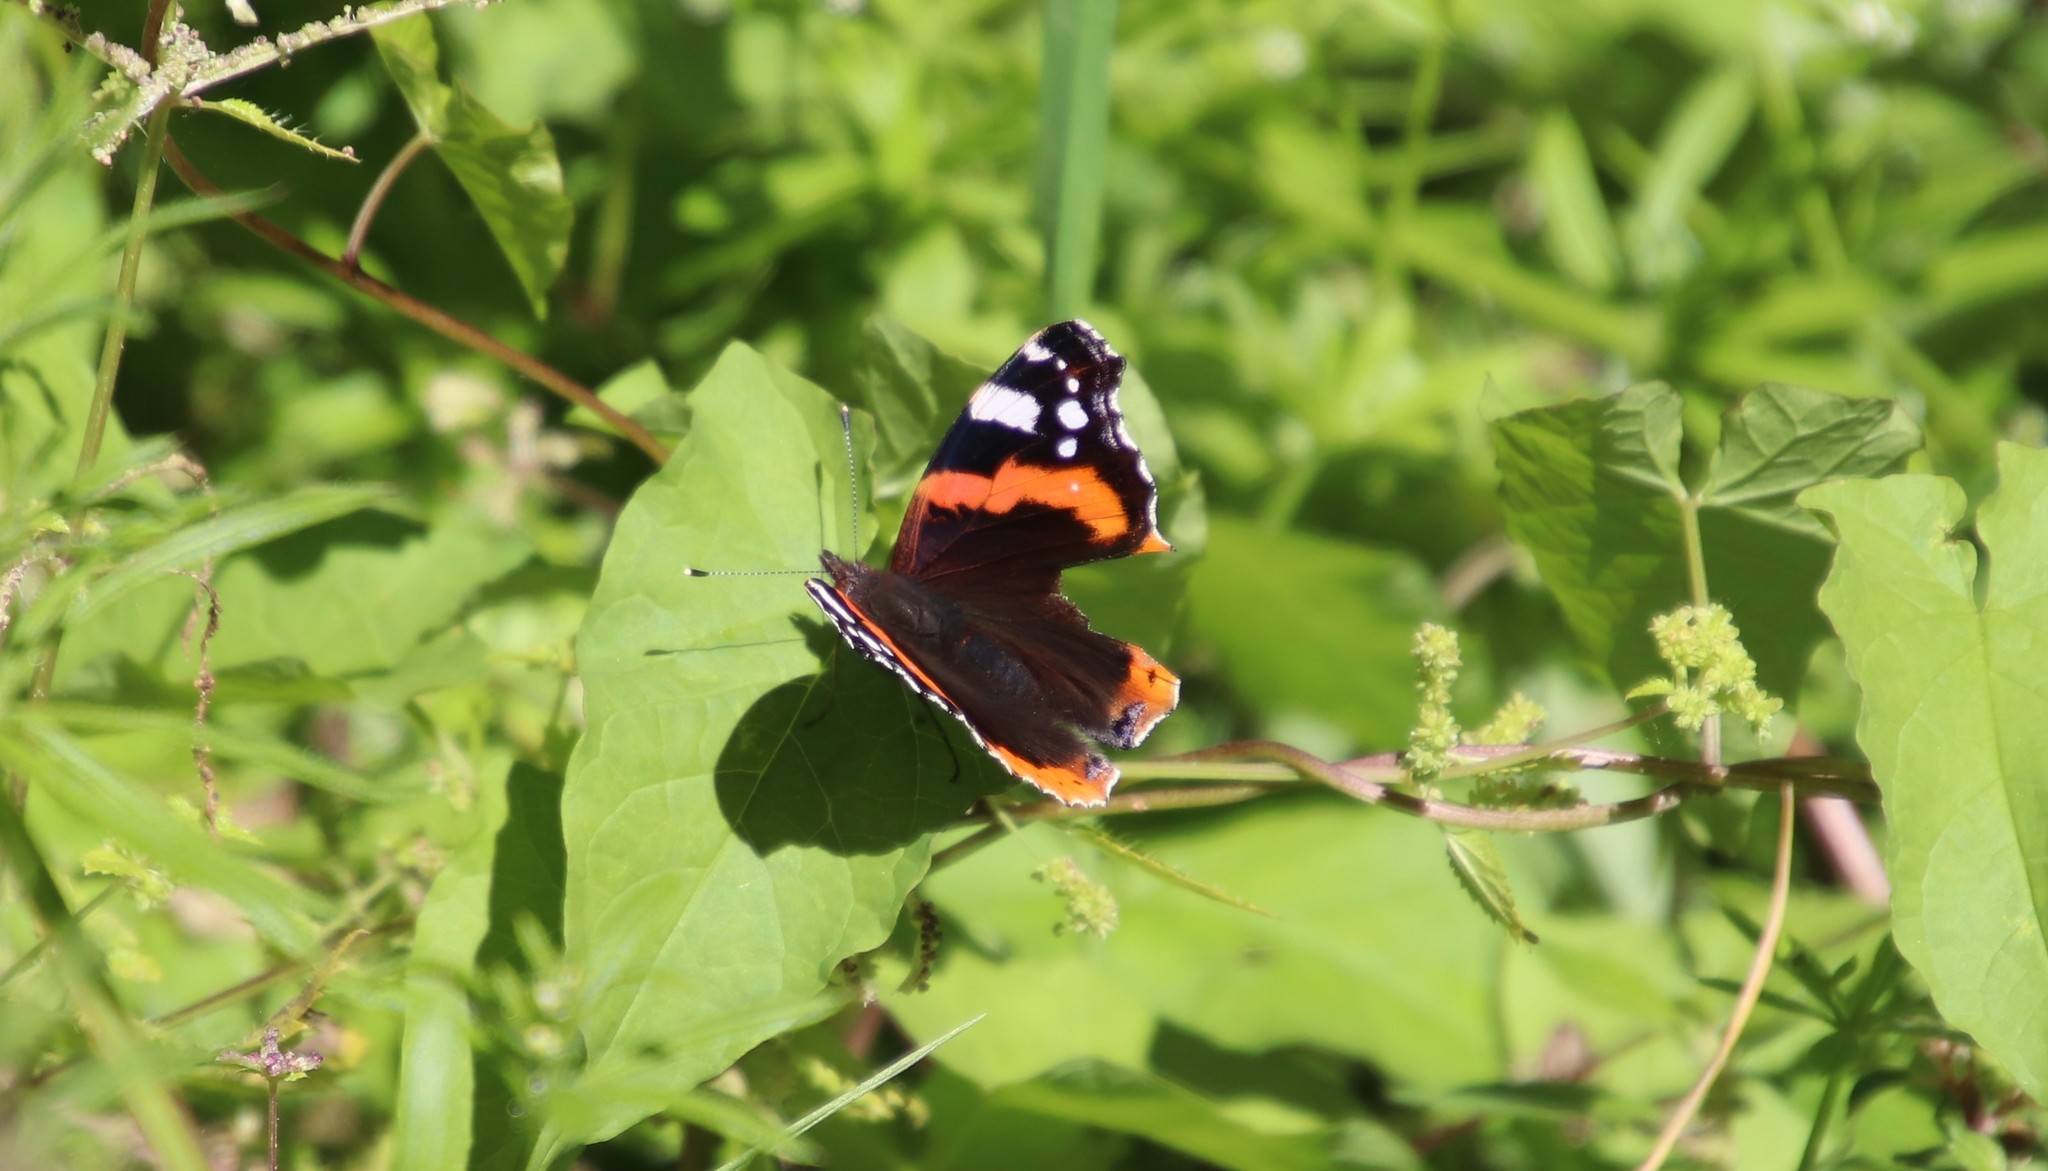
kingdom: Animalia
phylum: Arthropoda
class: Insecta
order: Lepidoptera
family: Nymphalidae
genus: Vanessa
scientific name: Vanessa atalanta
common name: Red admiral
